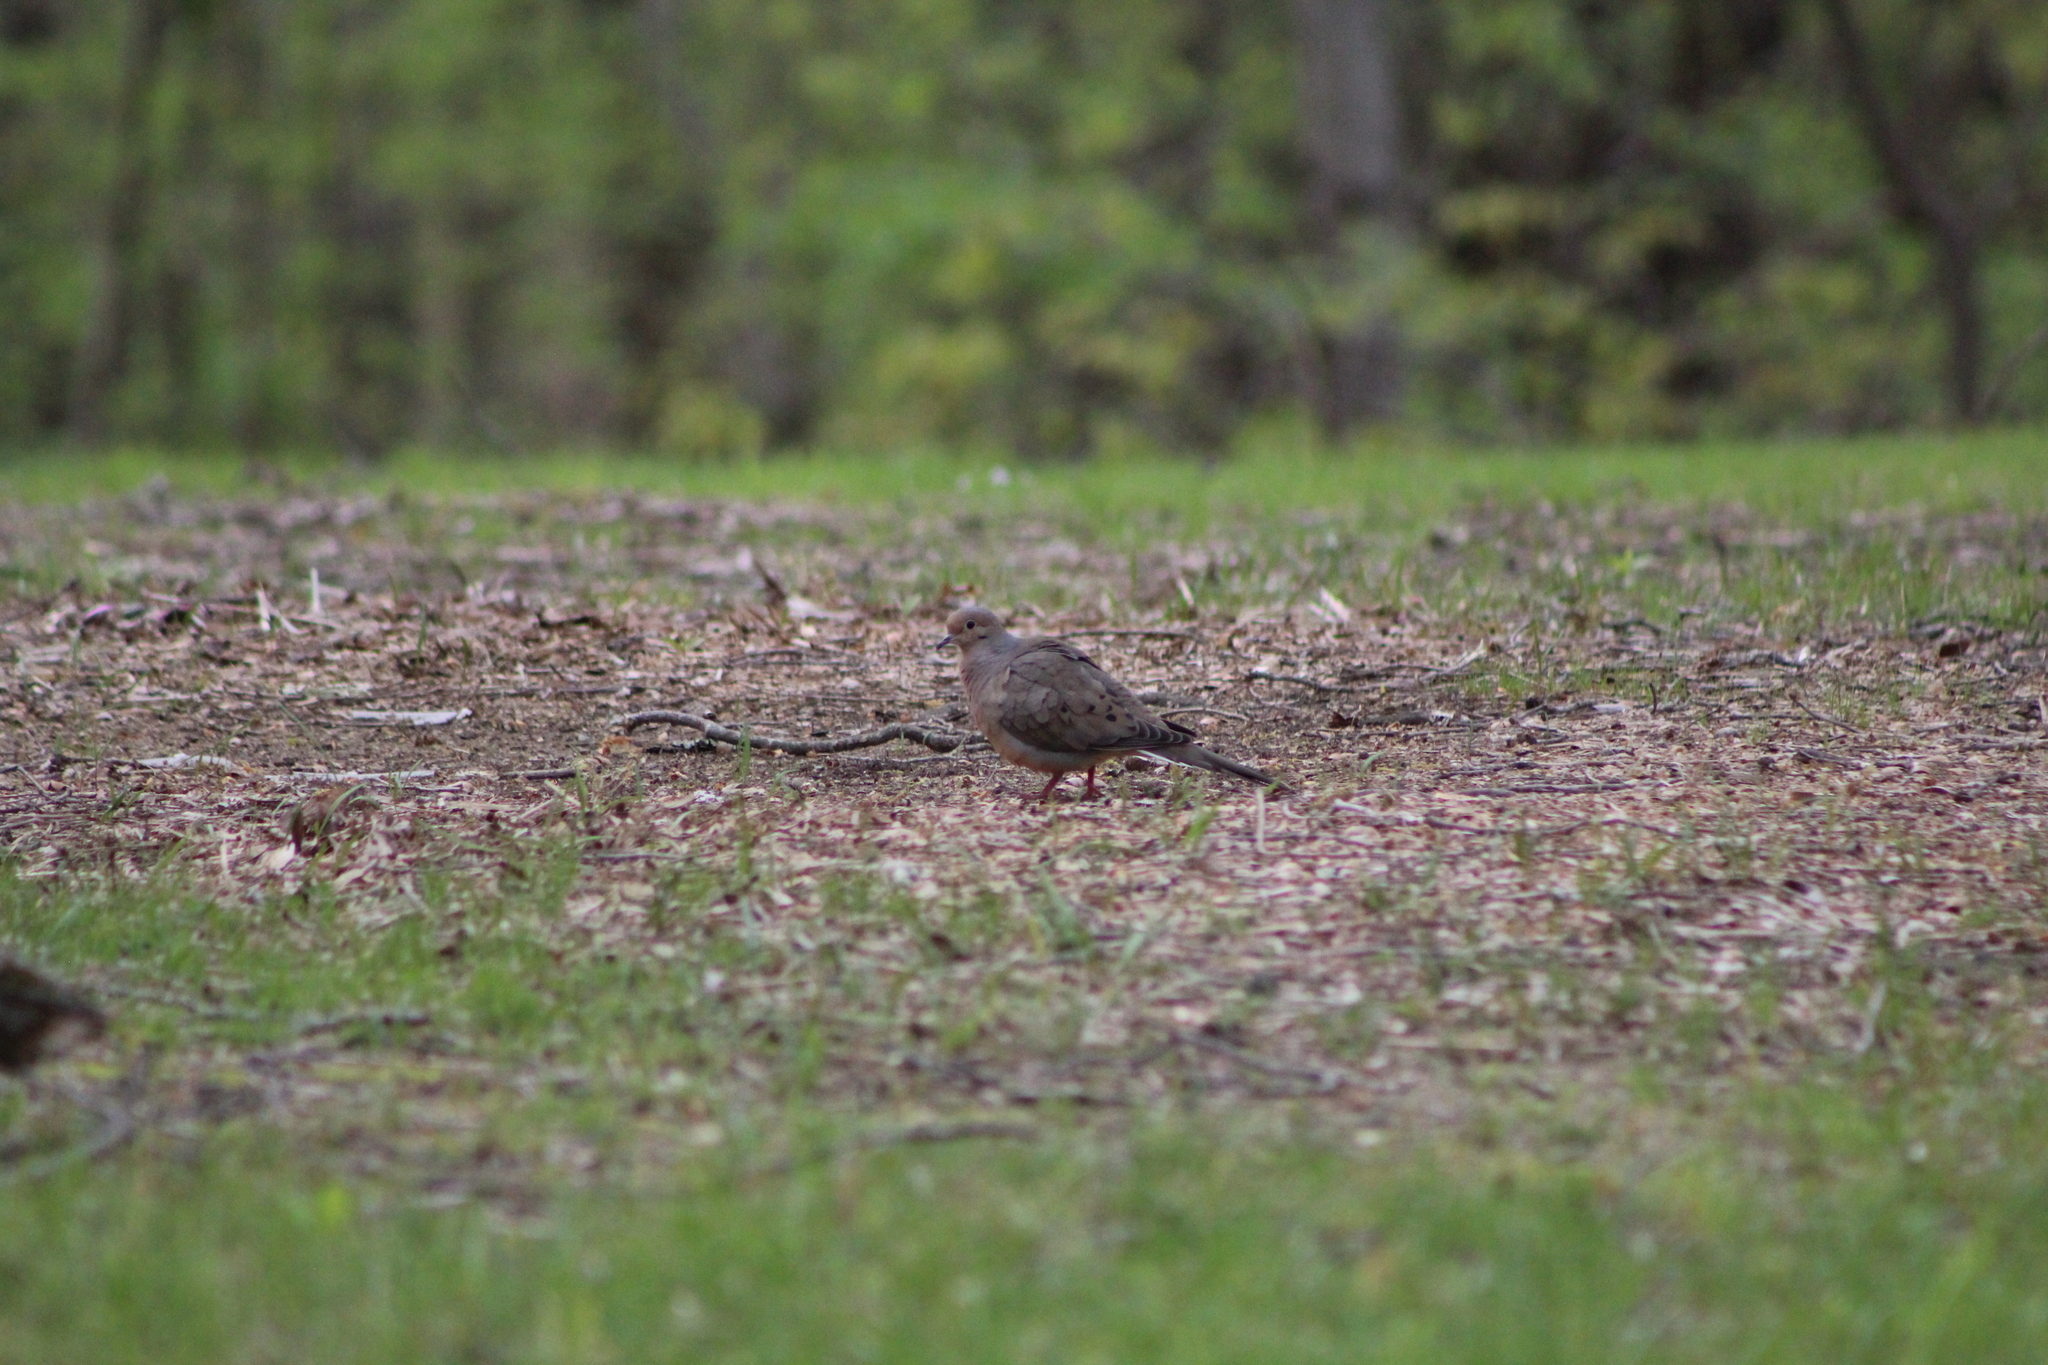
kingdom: Animalia
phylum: Chordata
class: Aves
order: Columbiformes
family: Columbidae
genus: Zenaida
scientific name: Zenaida macroura
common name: Mourning dove
